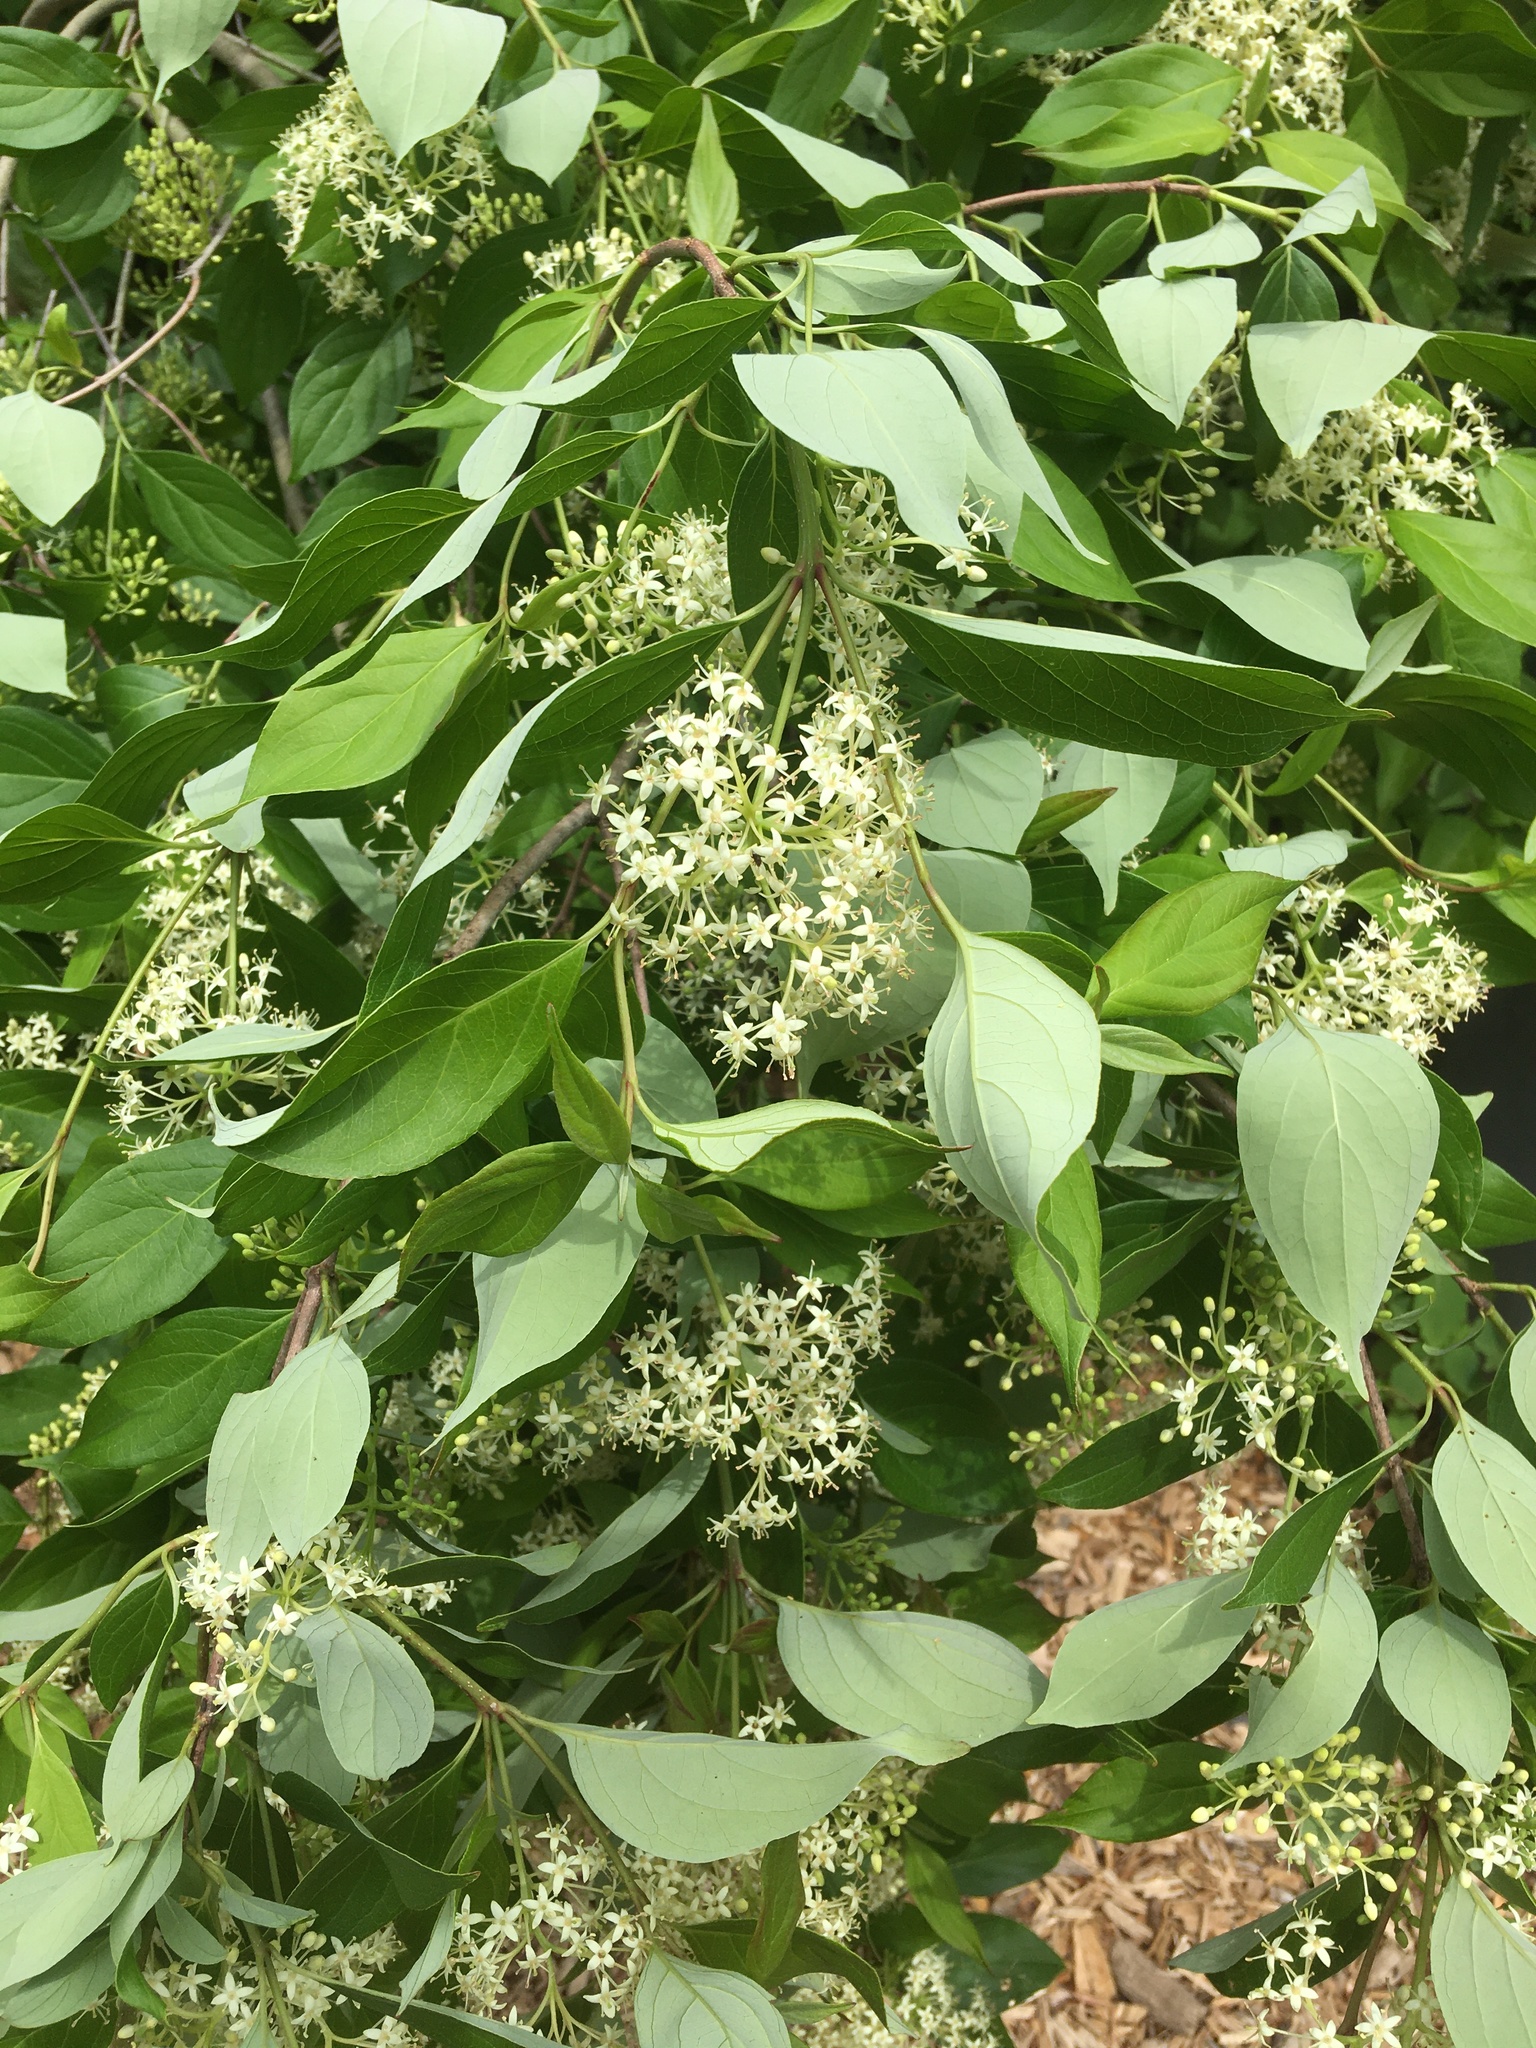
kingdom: Plantae
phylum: Tracheophyta
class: Magnoliopsida
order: Cornales
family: Cornaceae
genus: Cornus
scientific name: Cornus racemosa
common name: Panicled dogwood
